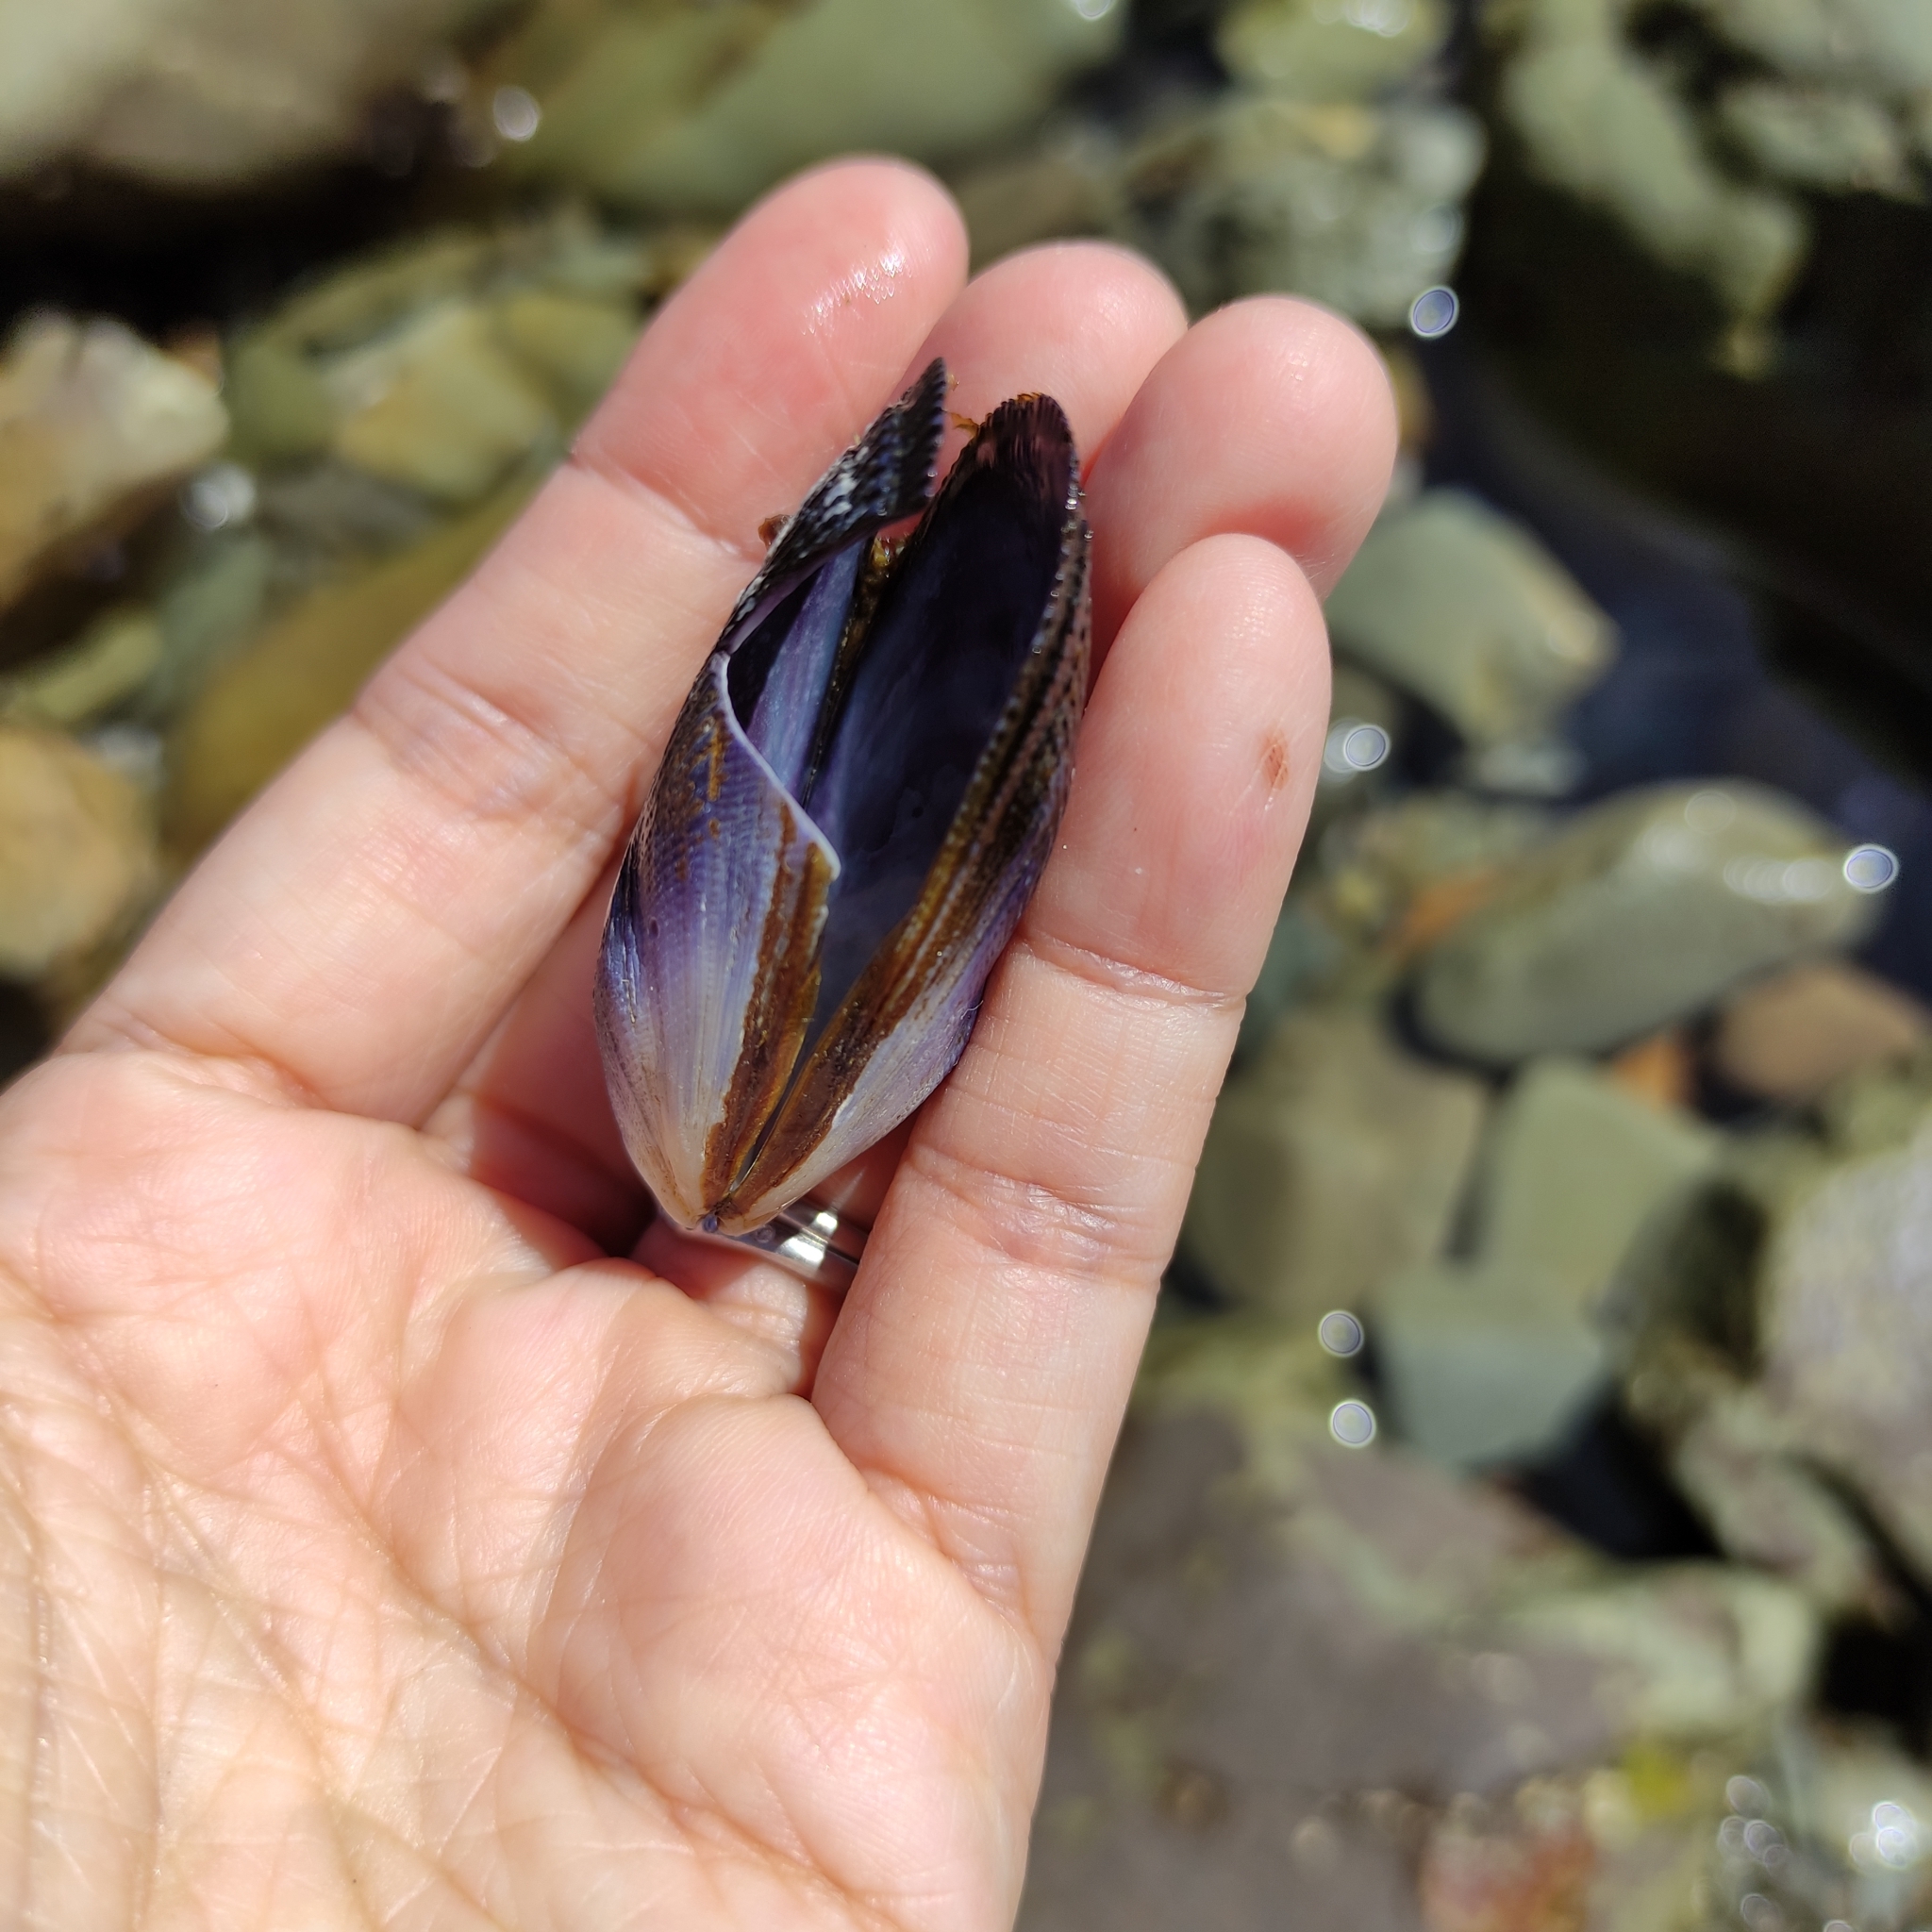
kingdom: Animalia
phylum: Mollusca
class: Bivalvia
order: Mytilida
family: Mytilidae
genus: Aulacomya
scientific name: Aulacomya maoriana
